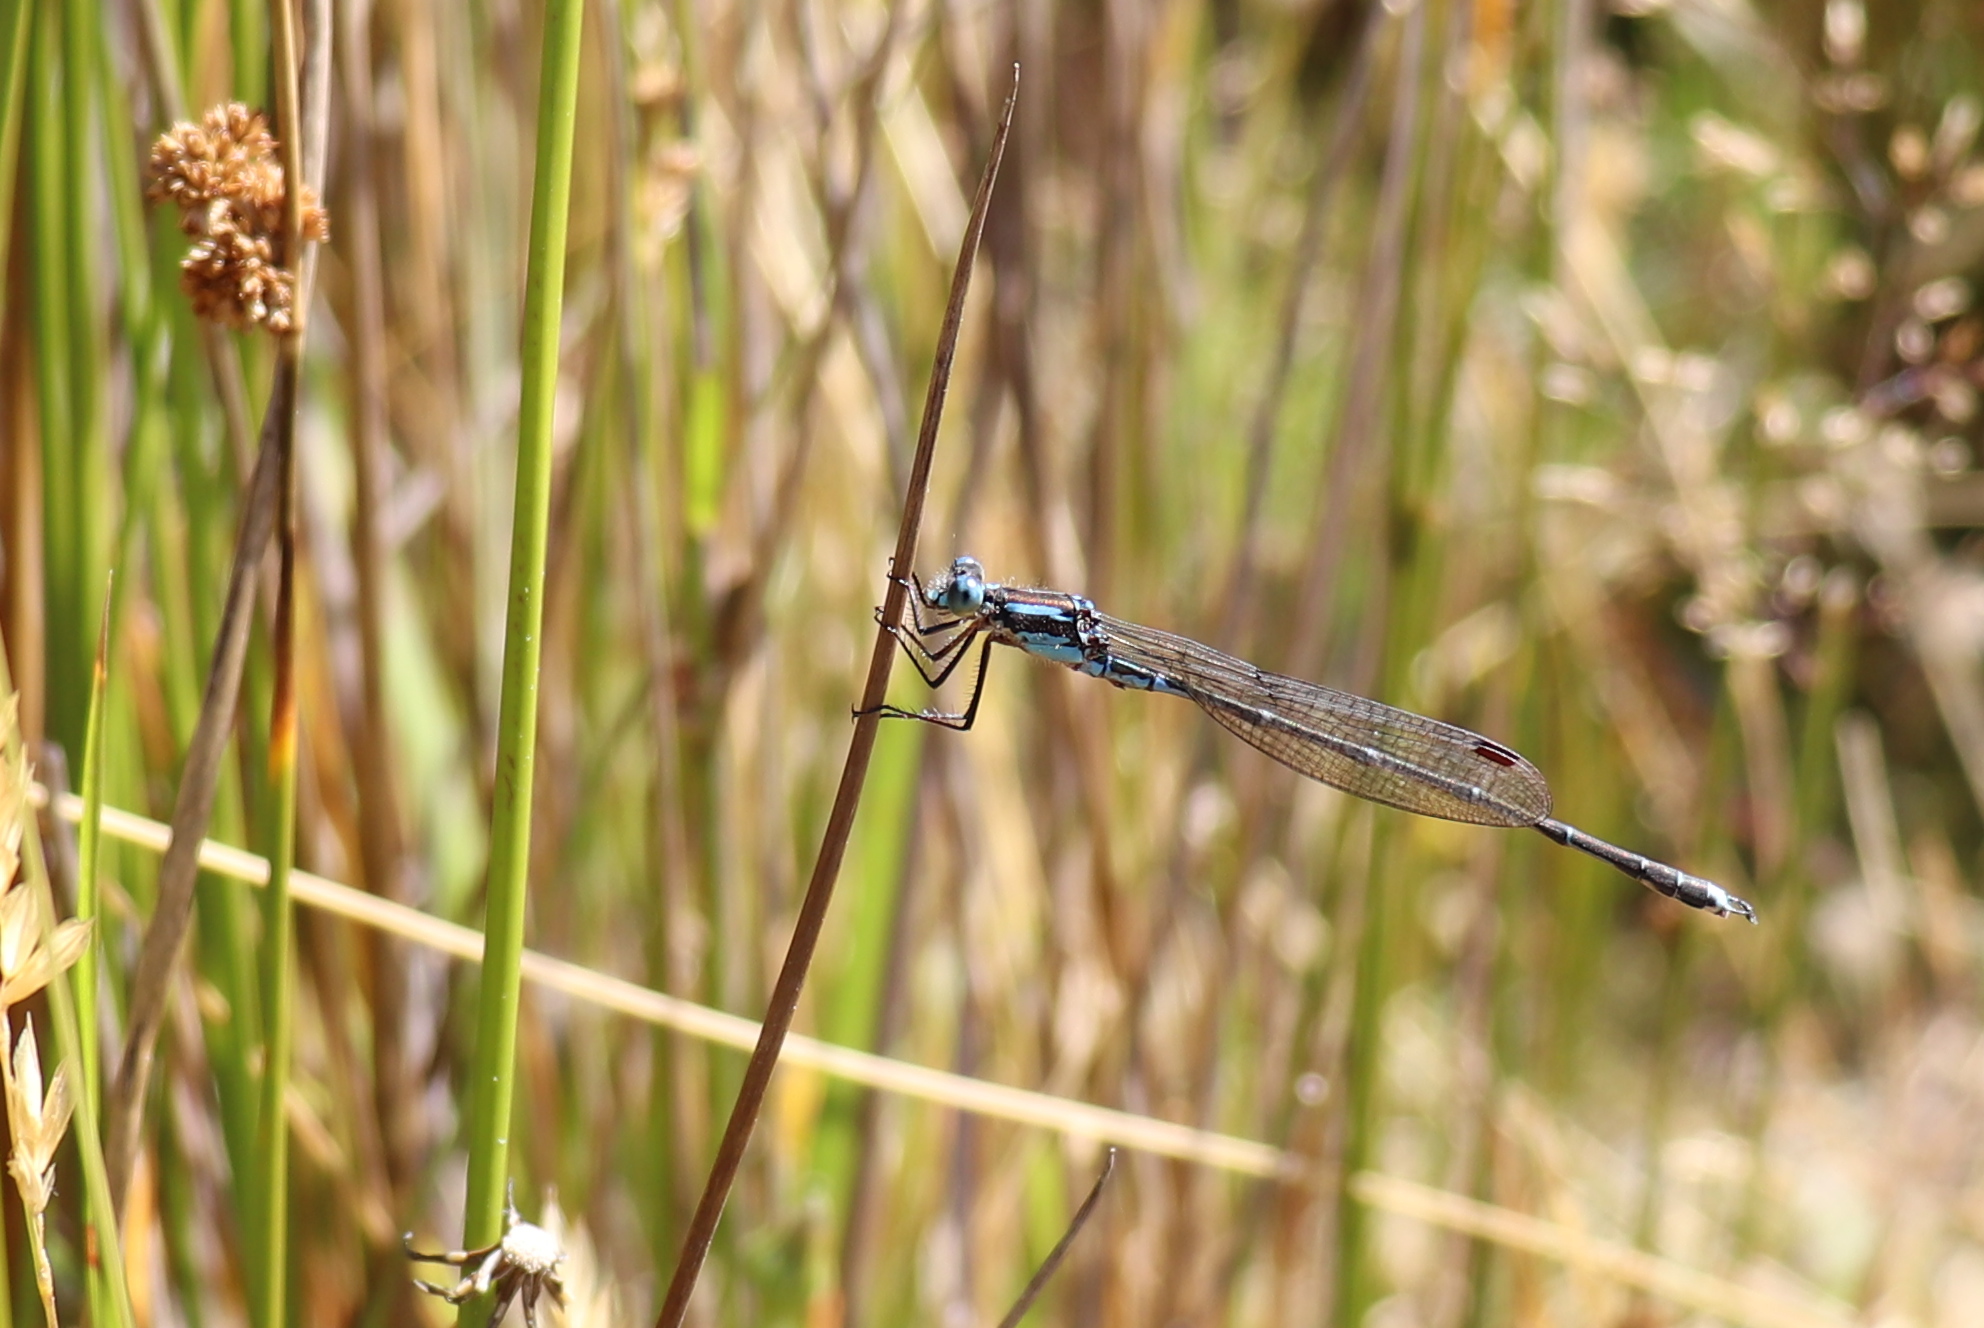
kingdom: Animalia
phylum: Arthropoda
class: Insecta
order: Odonata
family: Lestidae
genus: Austrolestes
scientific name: Austrolestes colensonis
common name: Blue damselfly
